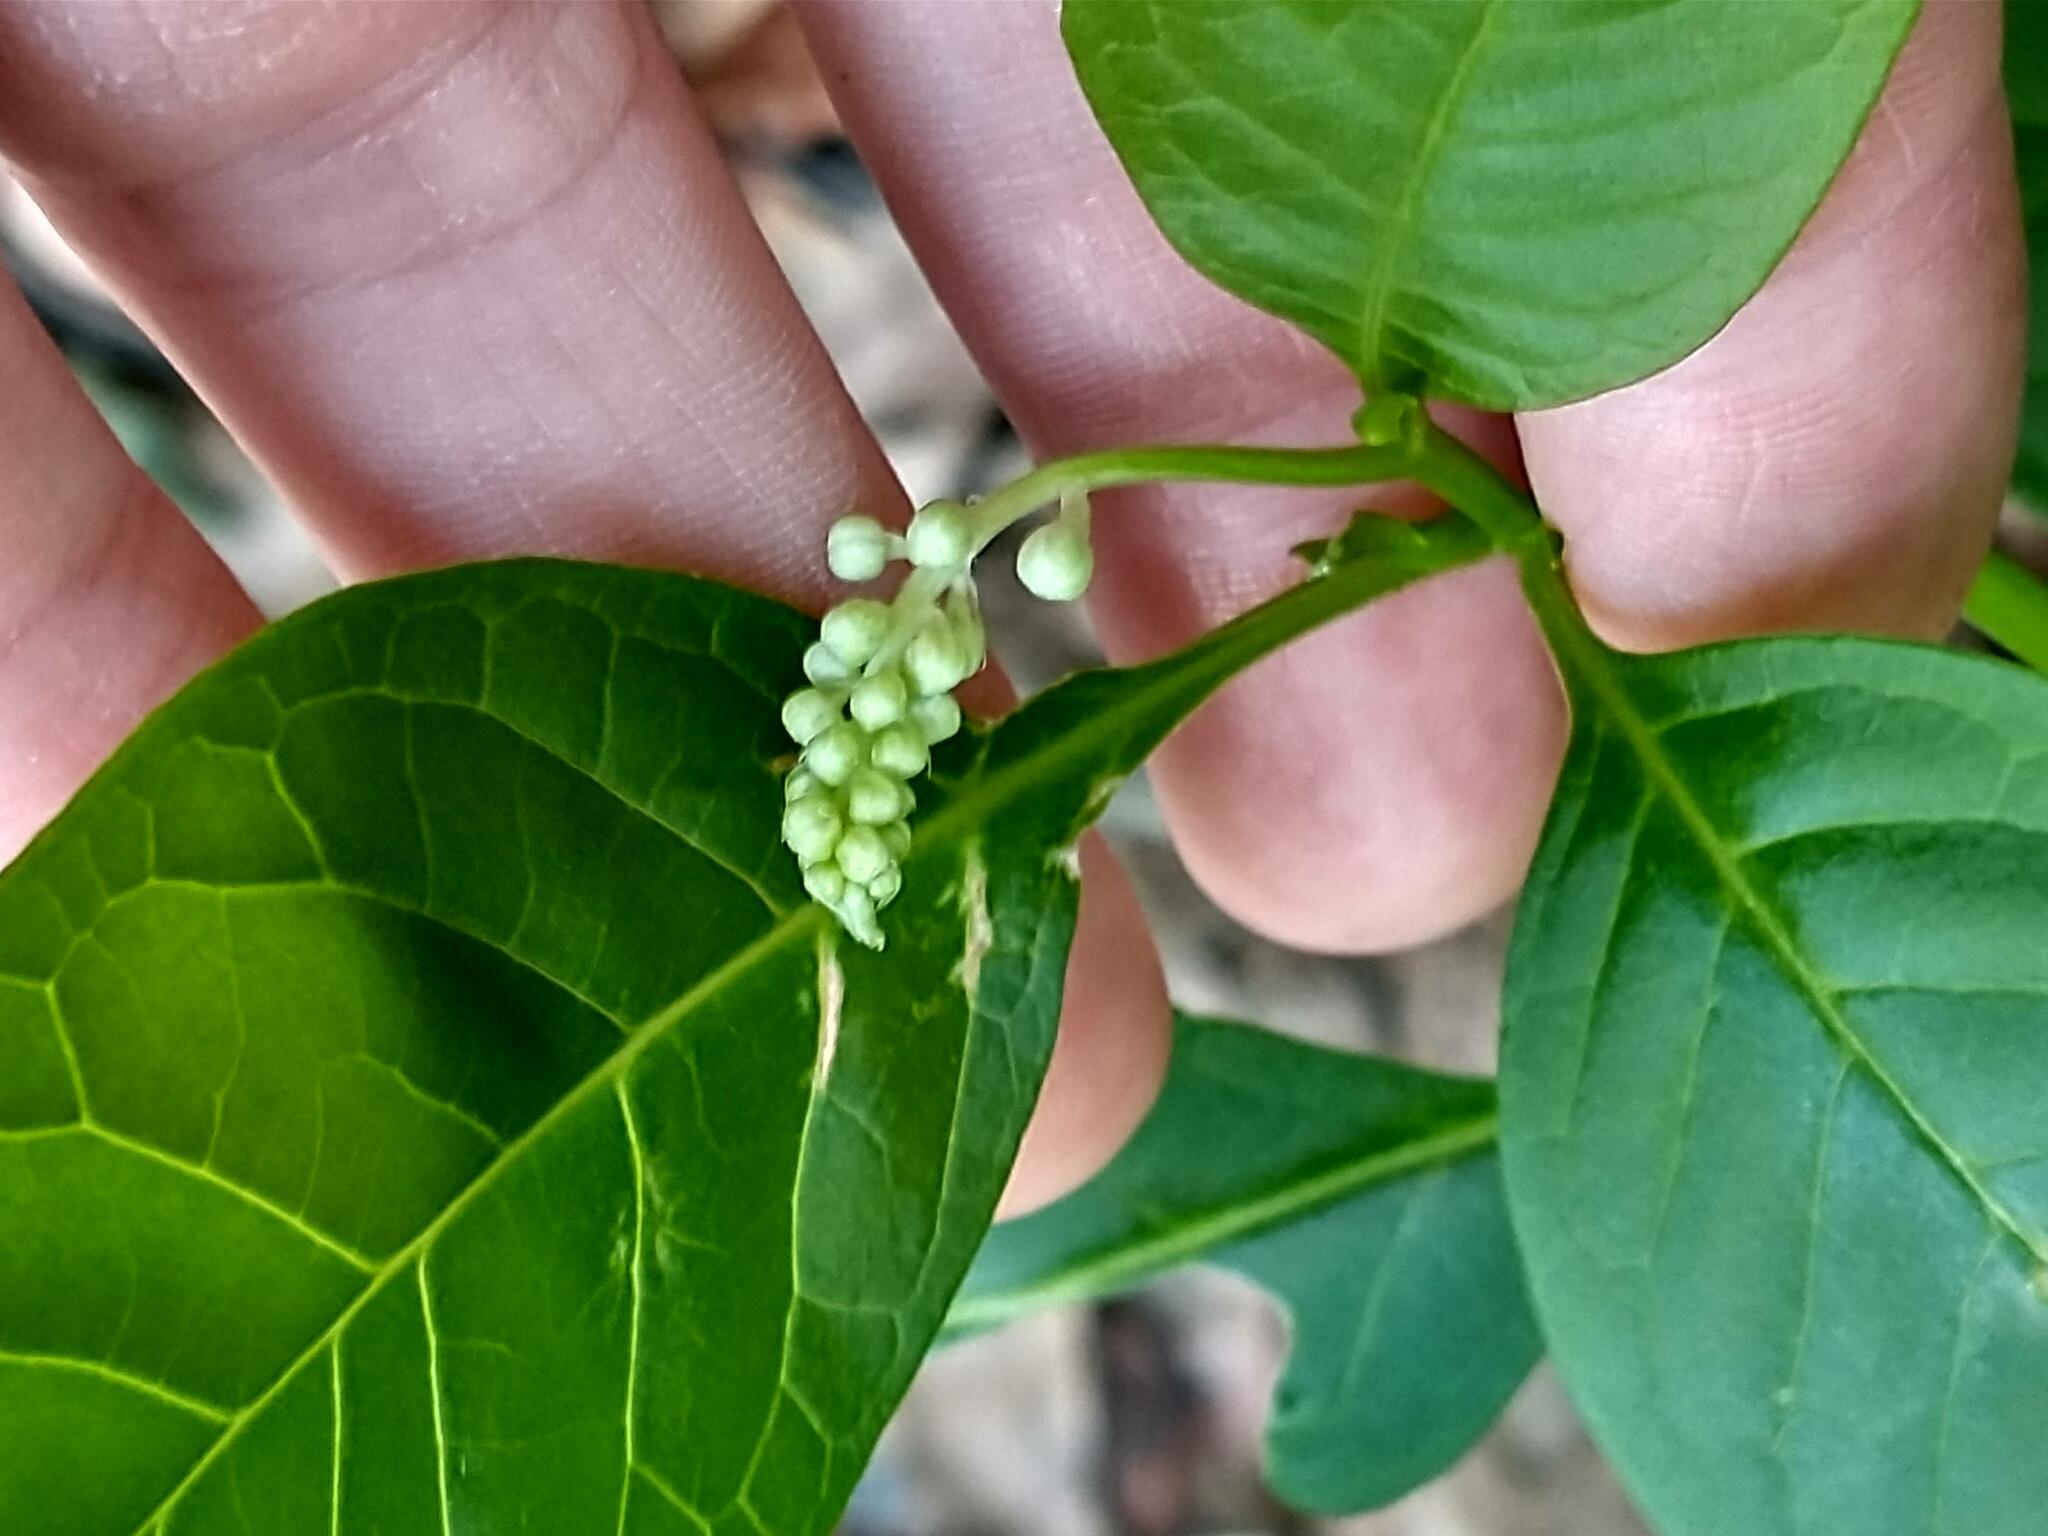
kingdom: Plantae
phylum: Tracheophyta
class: Magnoliopsida
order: Caryophyllales
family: Phytolaccaceae
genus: Phytolacca
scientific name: Phytolacca americana
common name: American pokeweed
